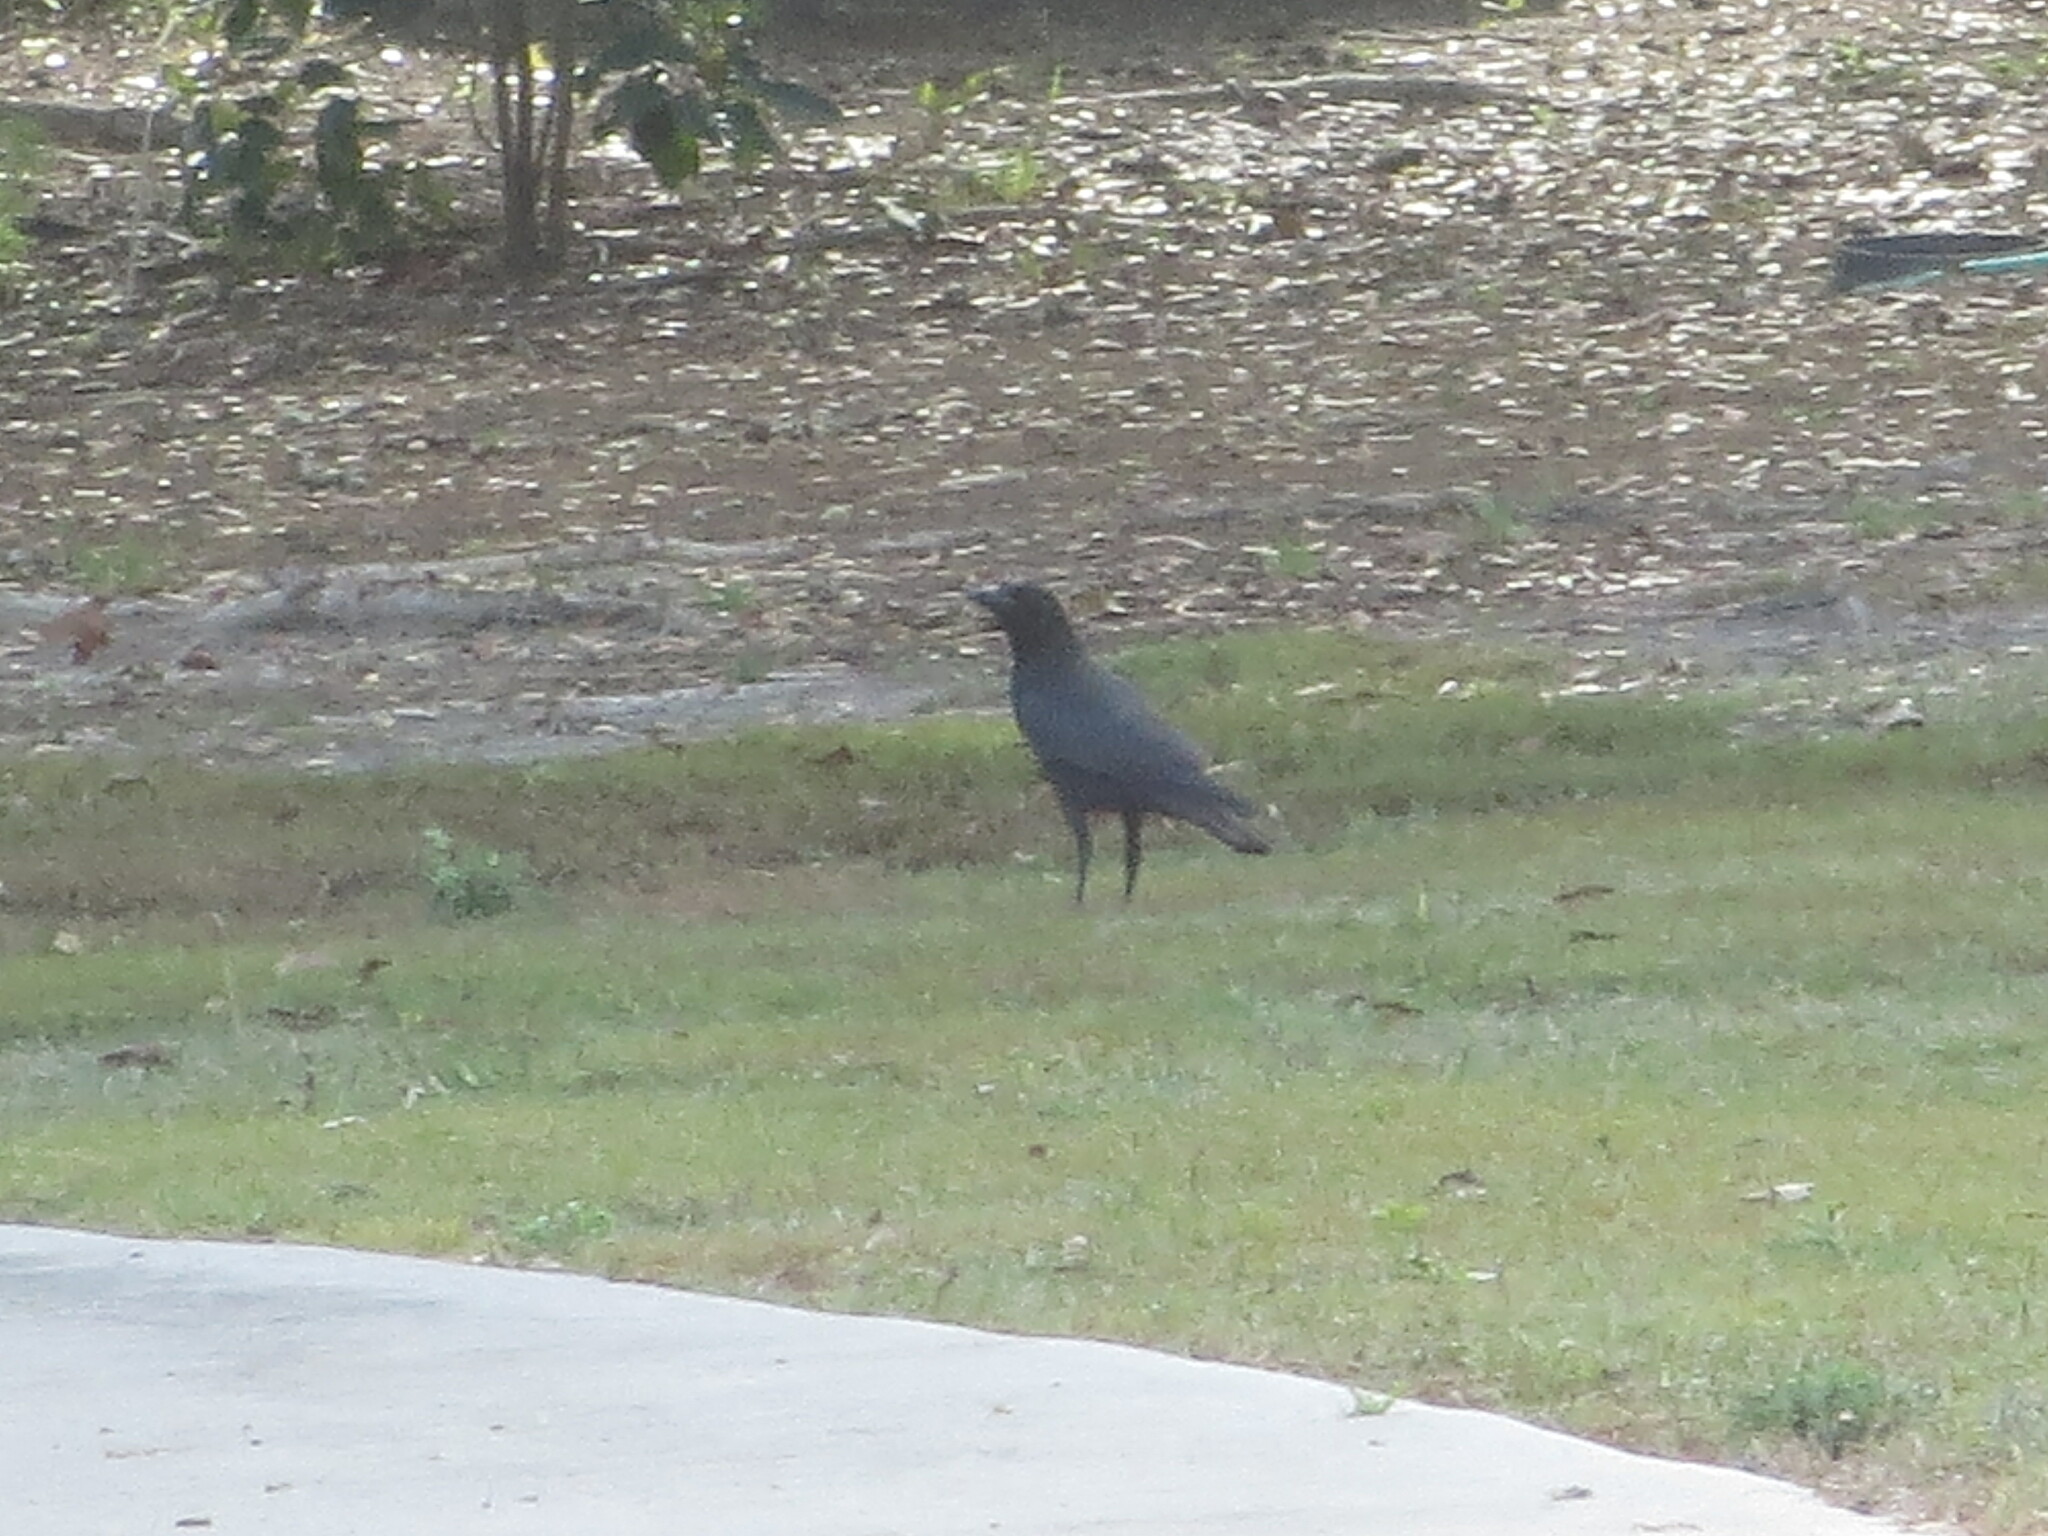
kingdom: Animalia
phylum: Chordata
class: Aves
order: Passeriformes
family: Corvidae
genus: Corvus
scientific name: Corvus
